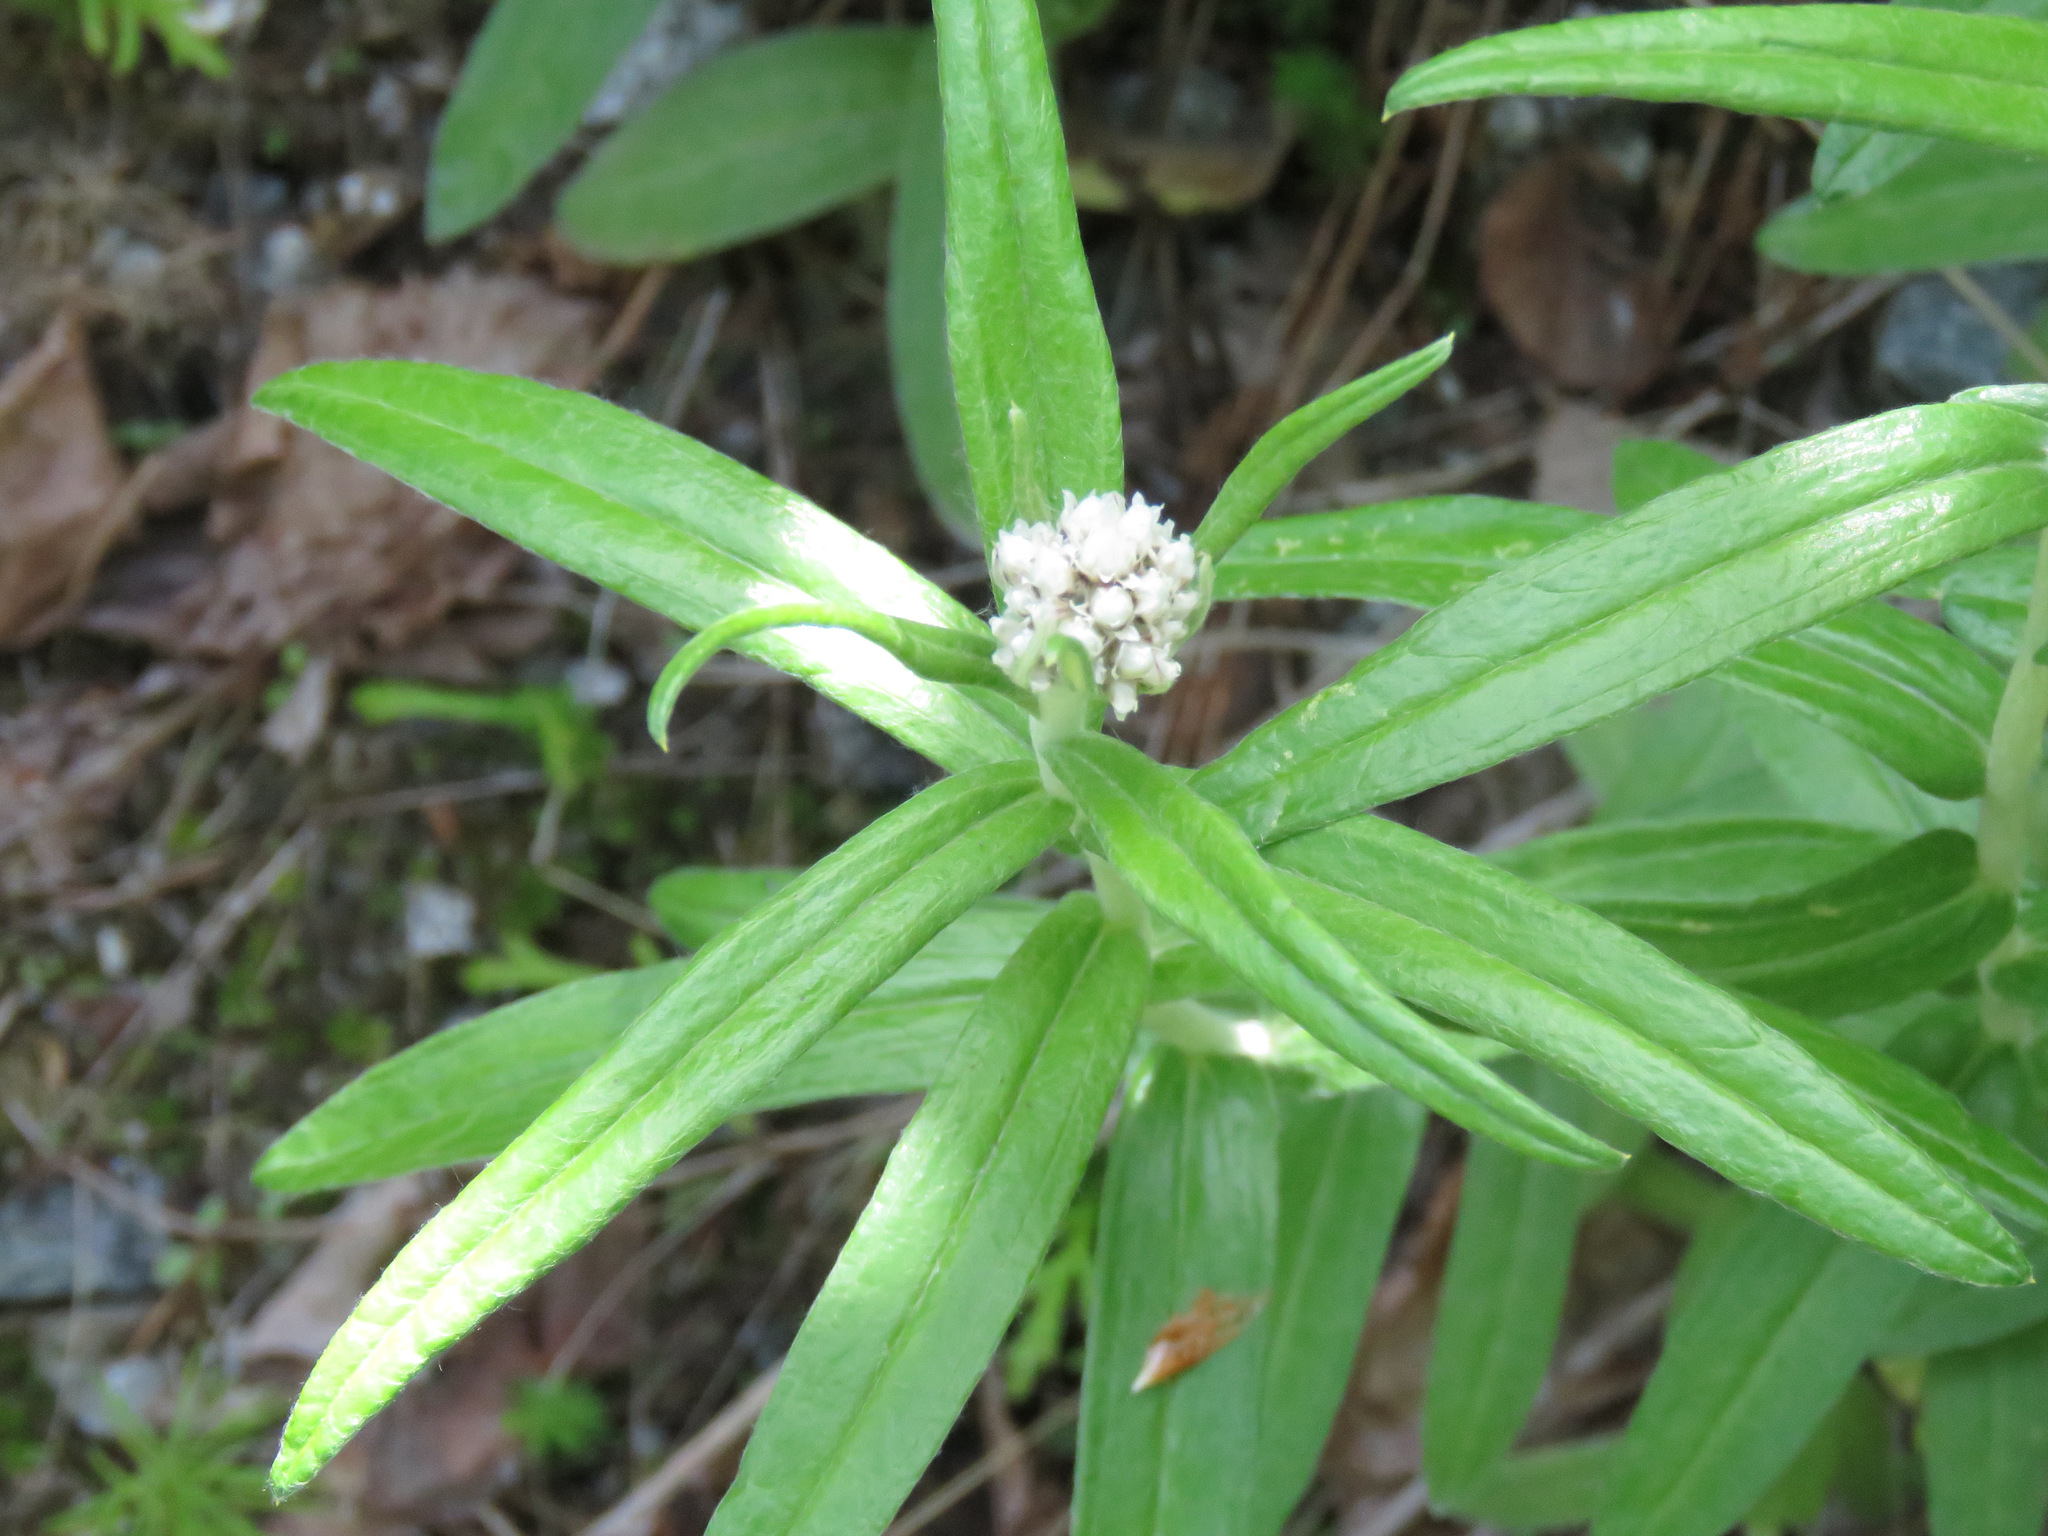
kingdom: Plantae
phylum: Tracheophyta
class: Magnoliopsida
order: Asterales
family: Asteraceae
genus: Anaphalis
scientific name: Anaphalis margaritacea
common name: Pearly everlasting
